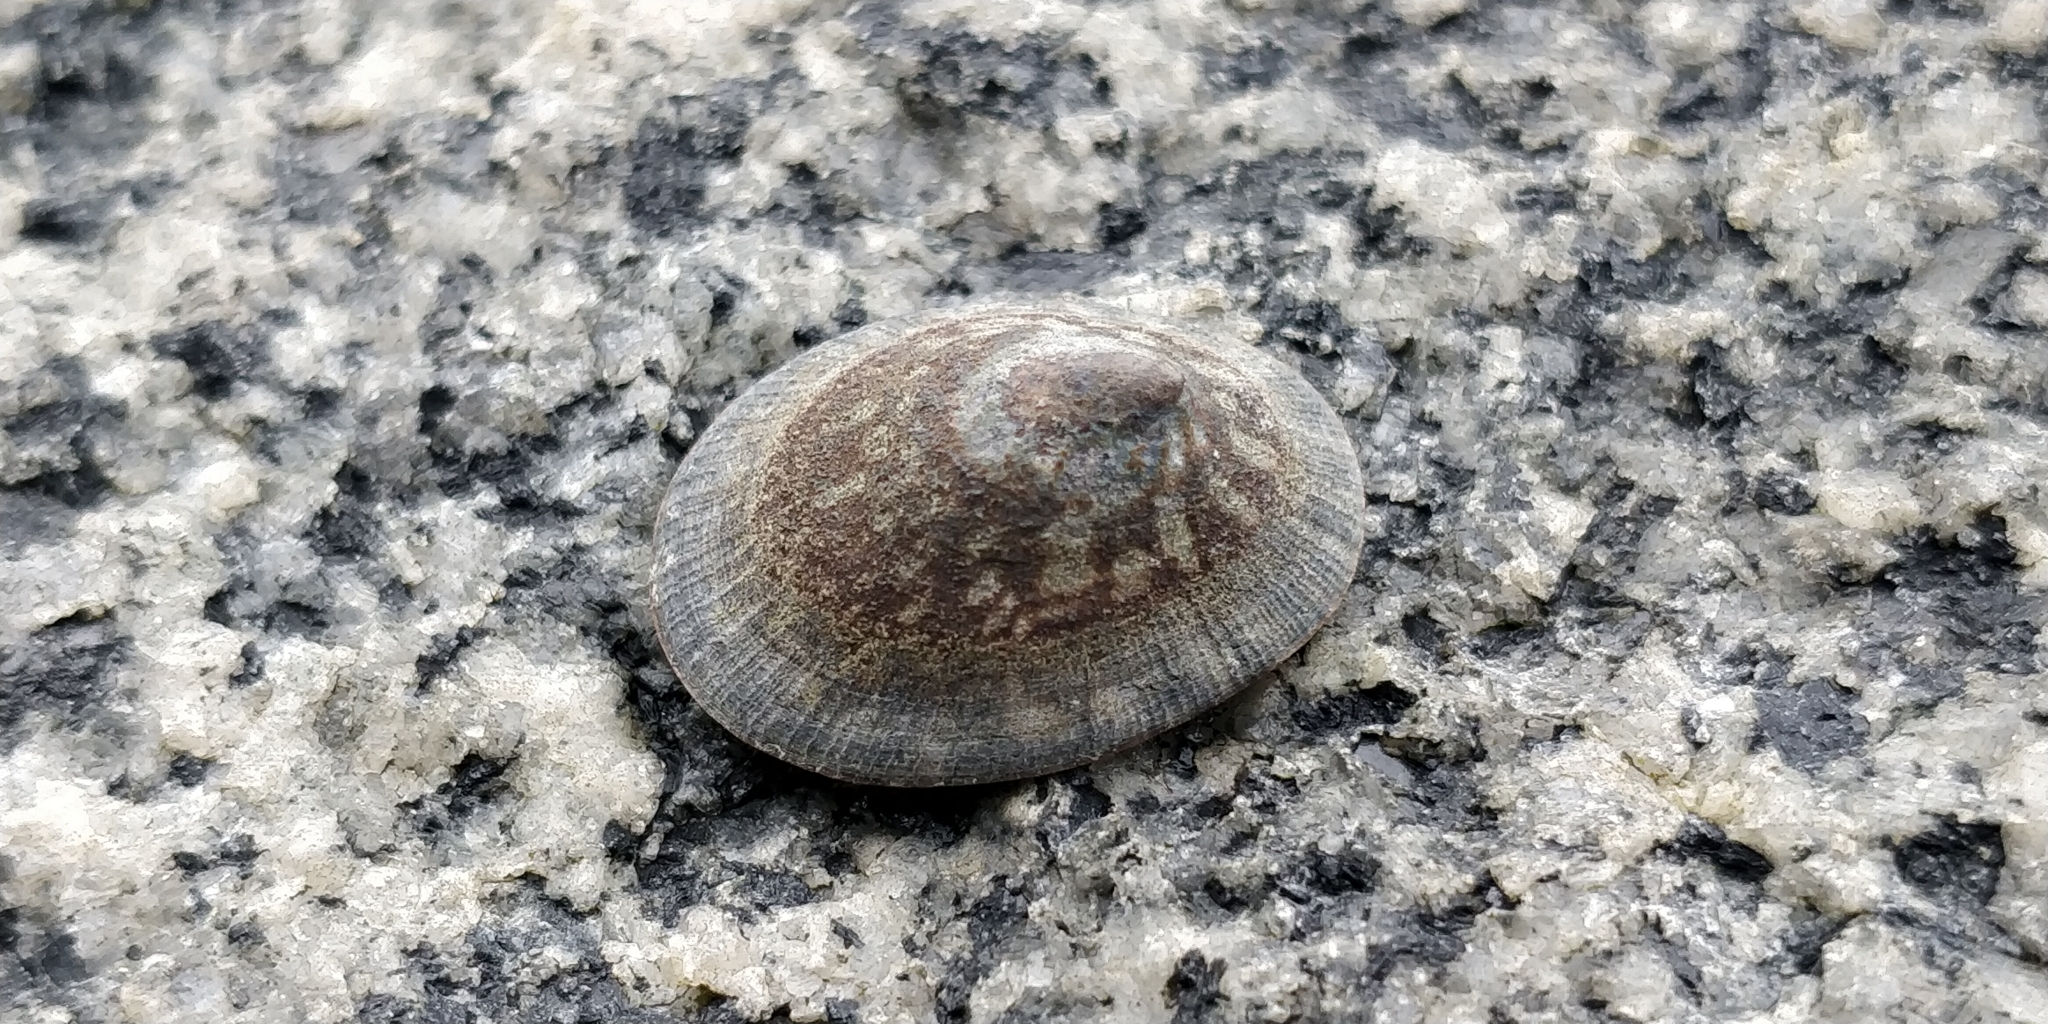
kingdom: Animalia
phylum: Mollusca
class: Gastropoda
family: Lottiidae
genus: Lottia
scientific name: Lottia persona
